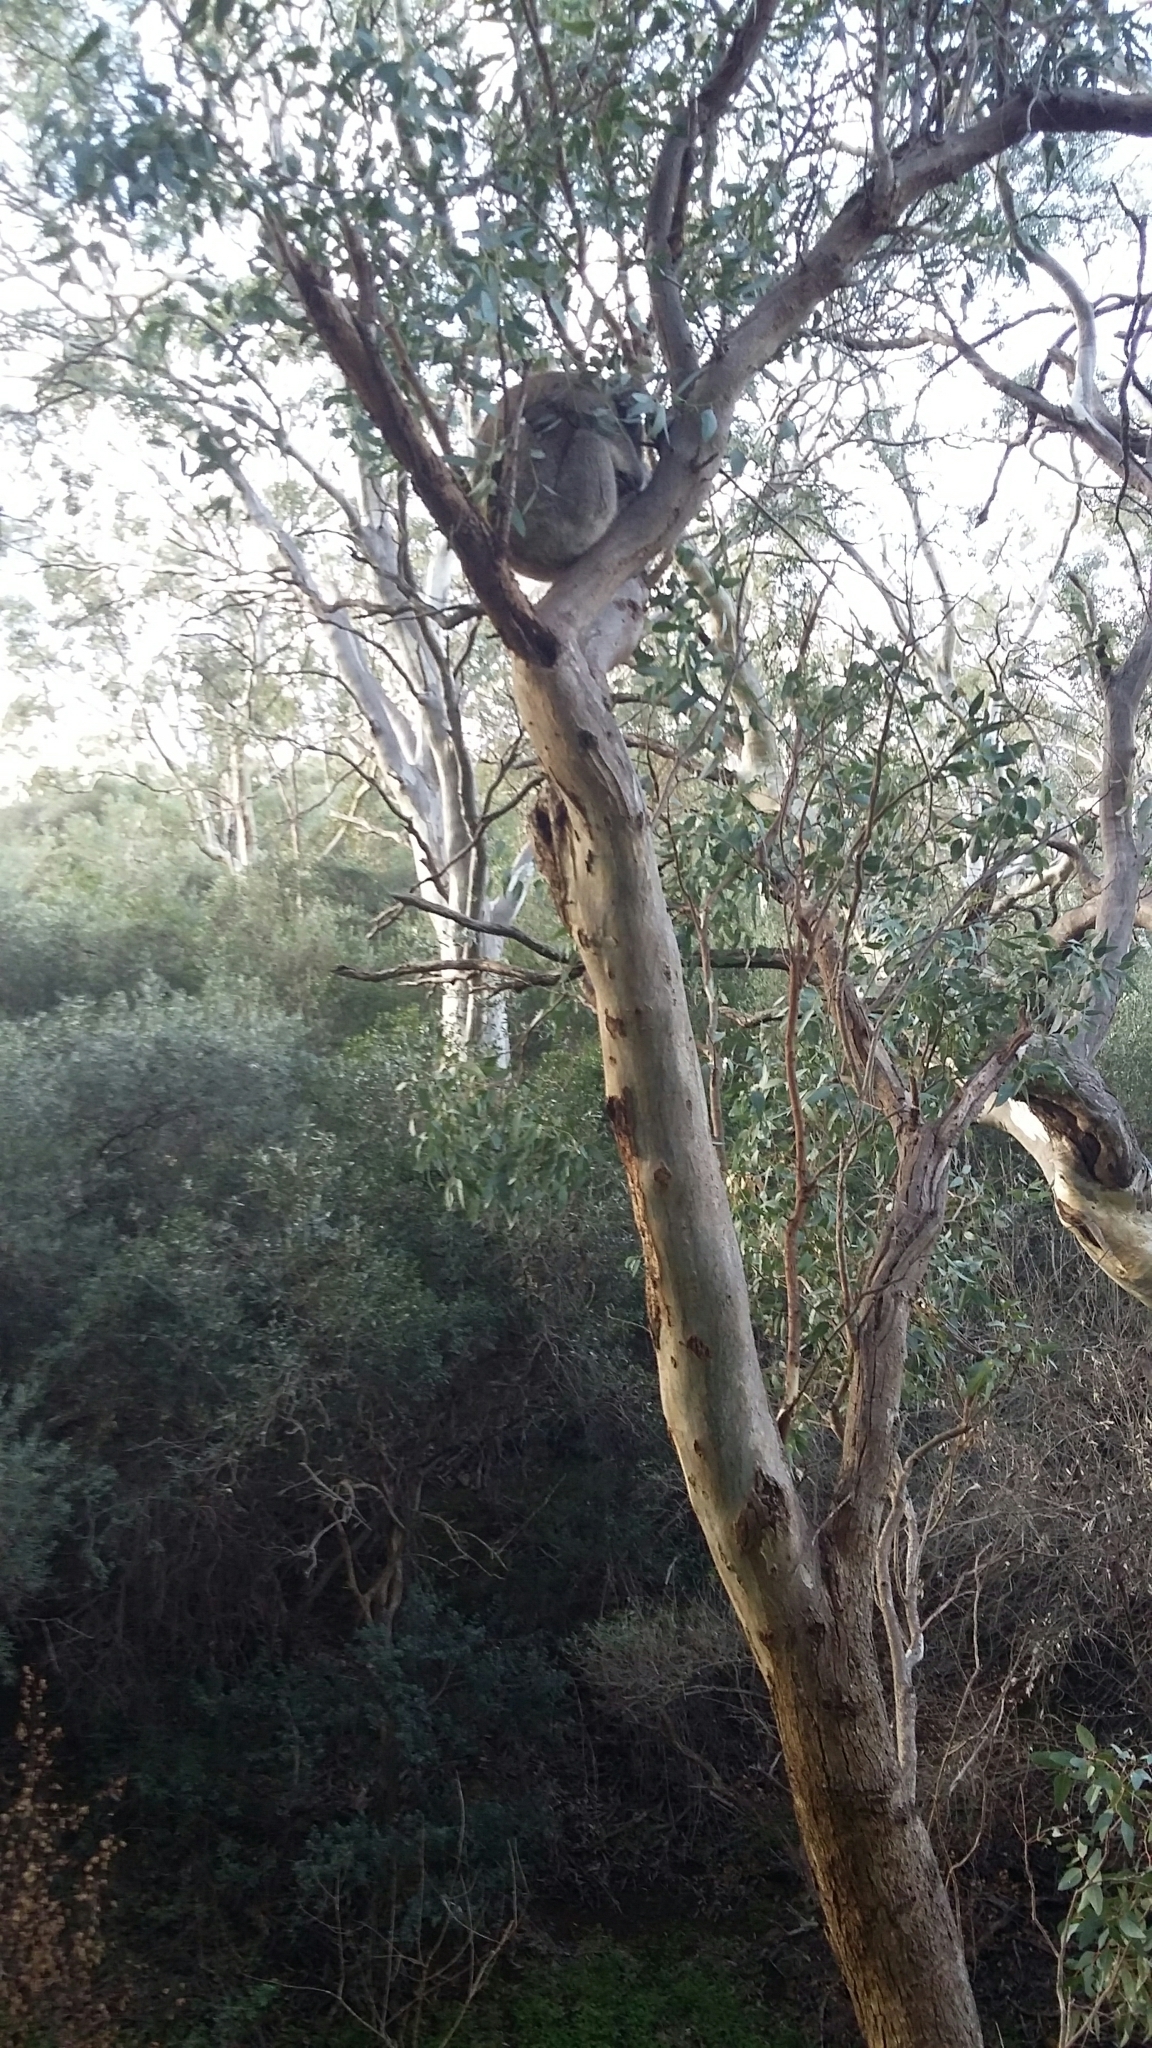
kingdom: Animalia
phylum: Chordata
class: Mammalia
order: Diprotodontia
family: Phascolarctidae
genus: Phascolarctos
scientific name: Phascolarctos cinereus
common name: Koala
